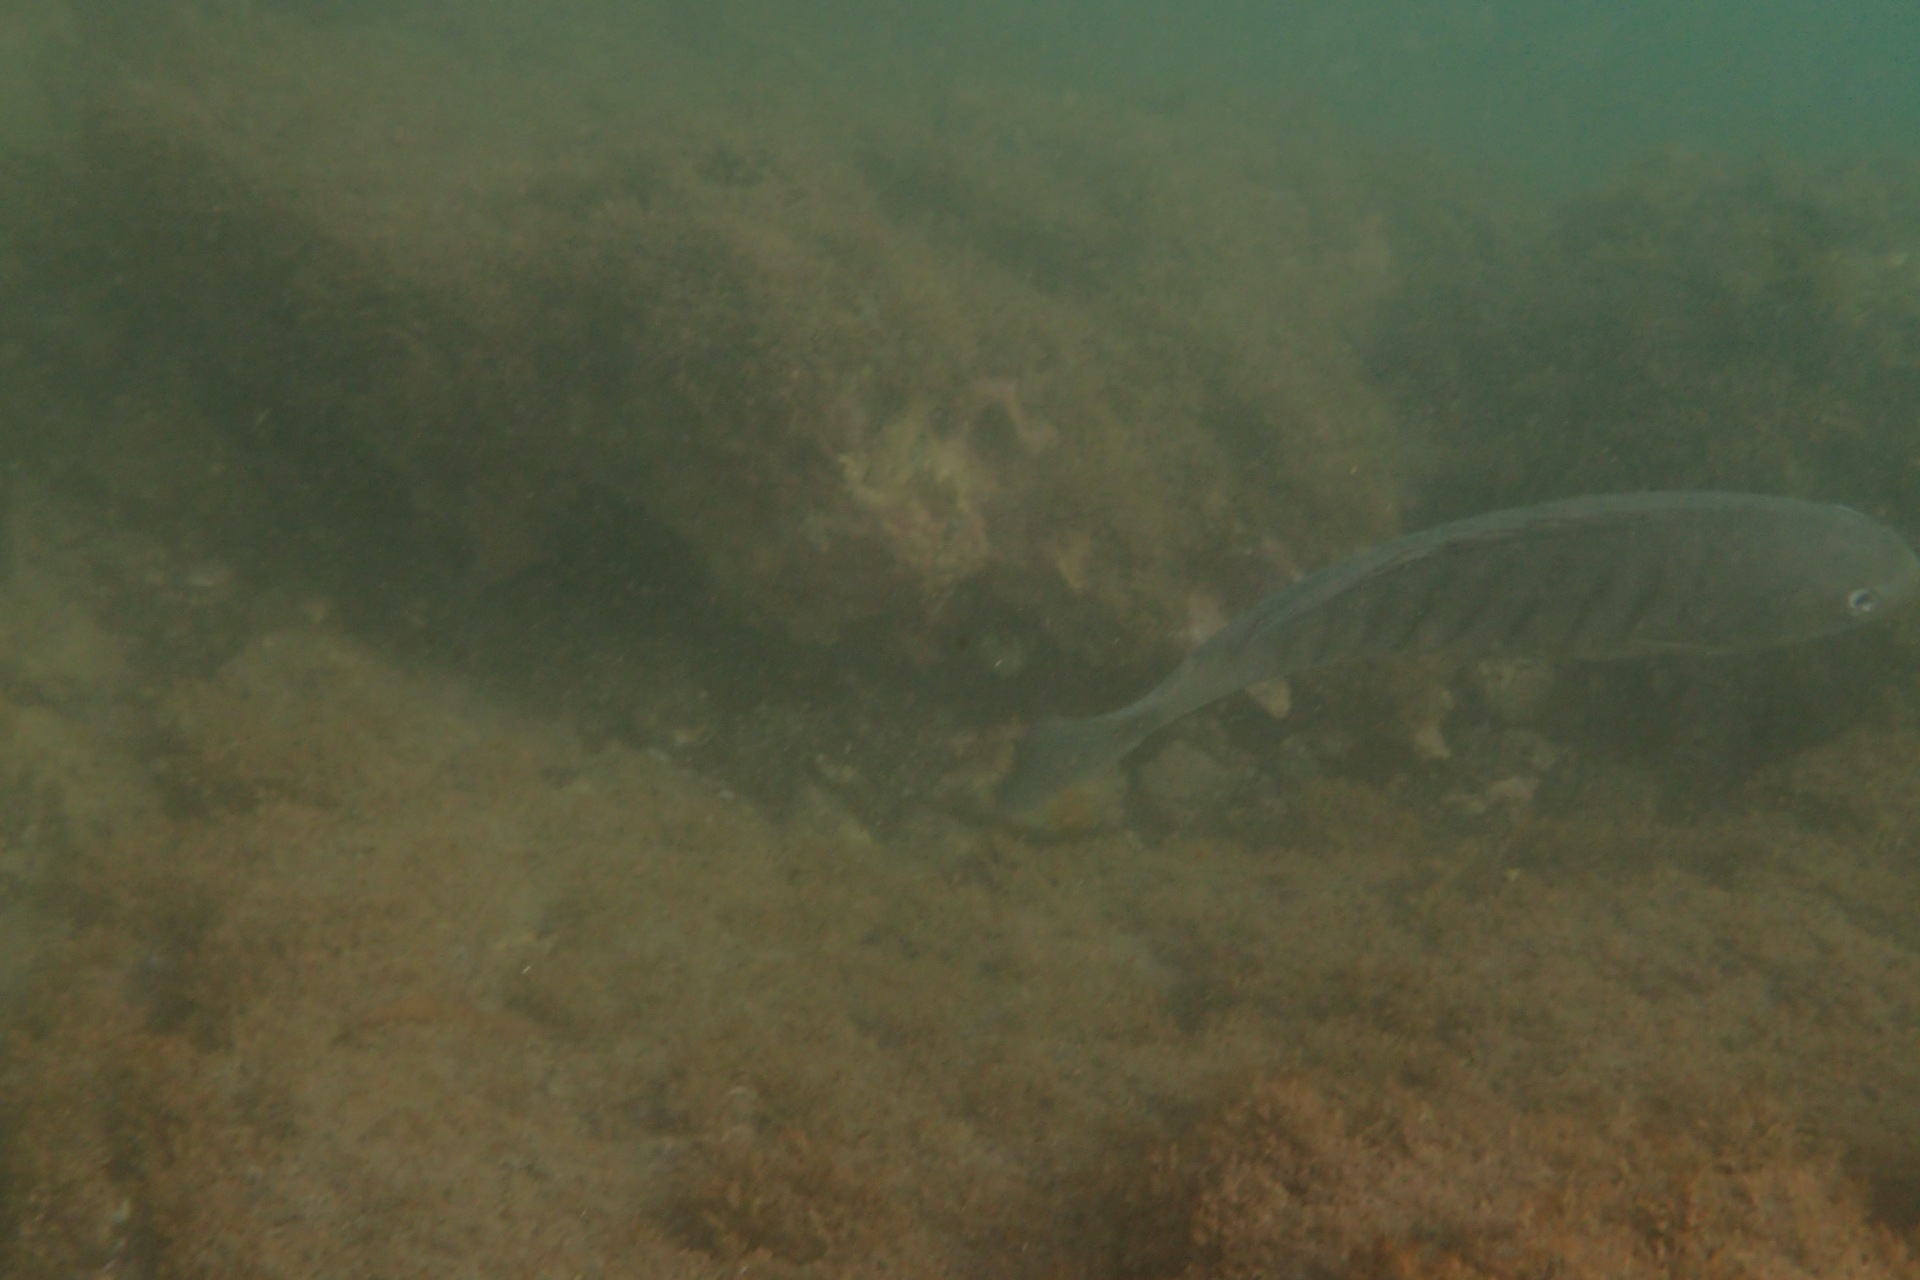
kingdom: Animalia
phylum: Chordata
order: Perciformes
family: Kyphosidae
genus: Girella
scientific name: Girella tricuspidata
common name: Parore
